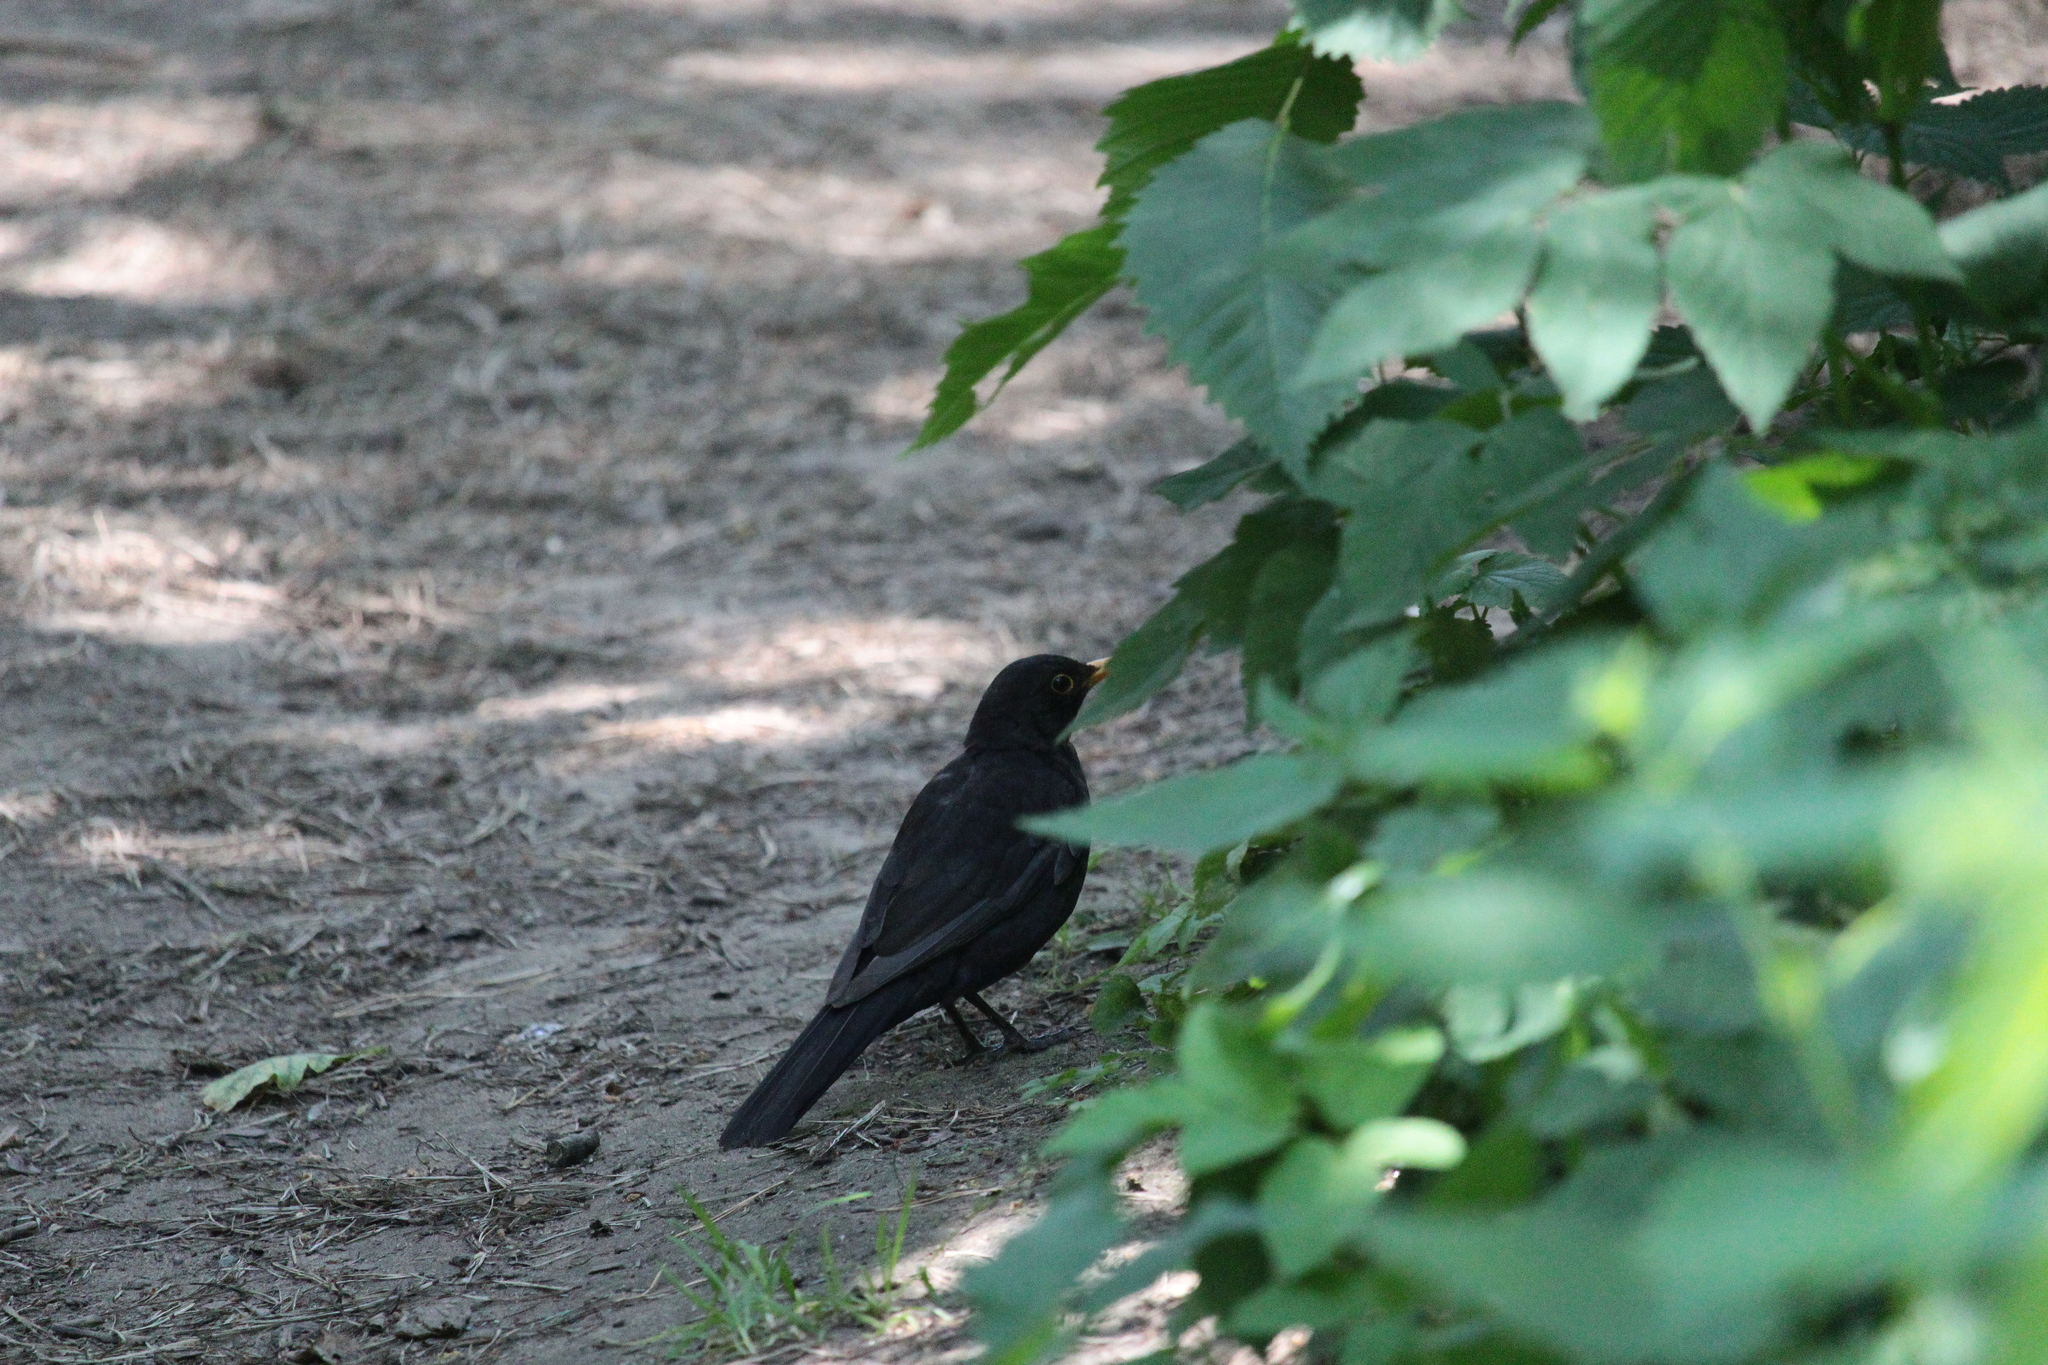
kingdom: Animalia
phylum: Chordata
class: Aves
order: Passeriformes
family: Turdidae
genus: Turdus
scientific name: Turdus merula
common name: Common blackbird
